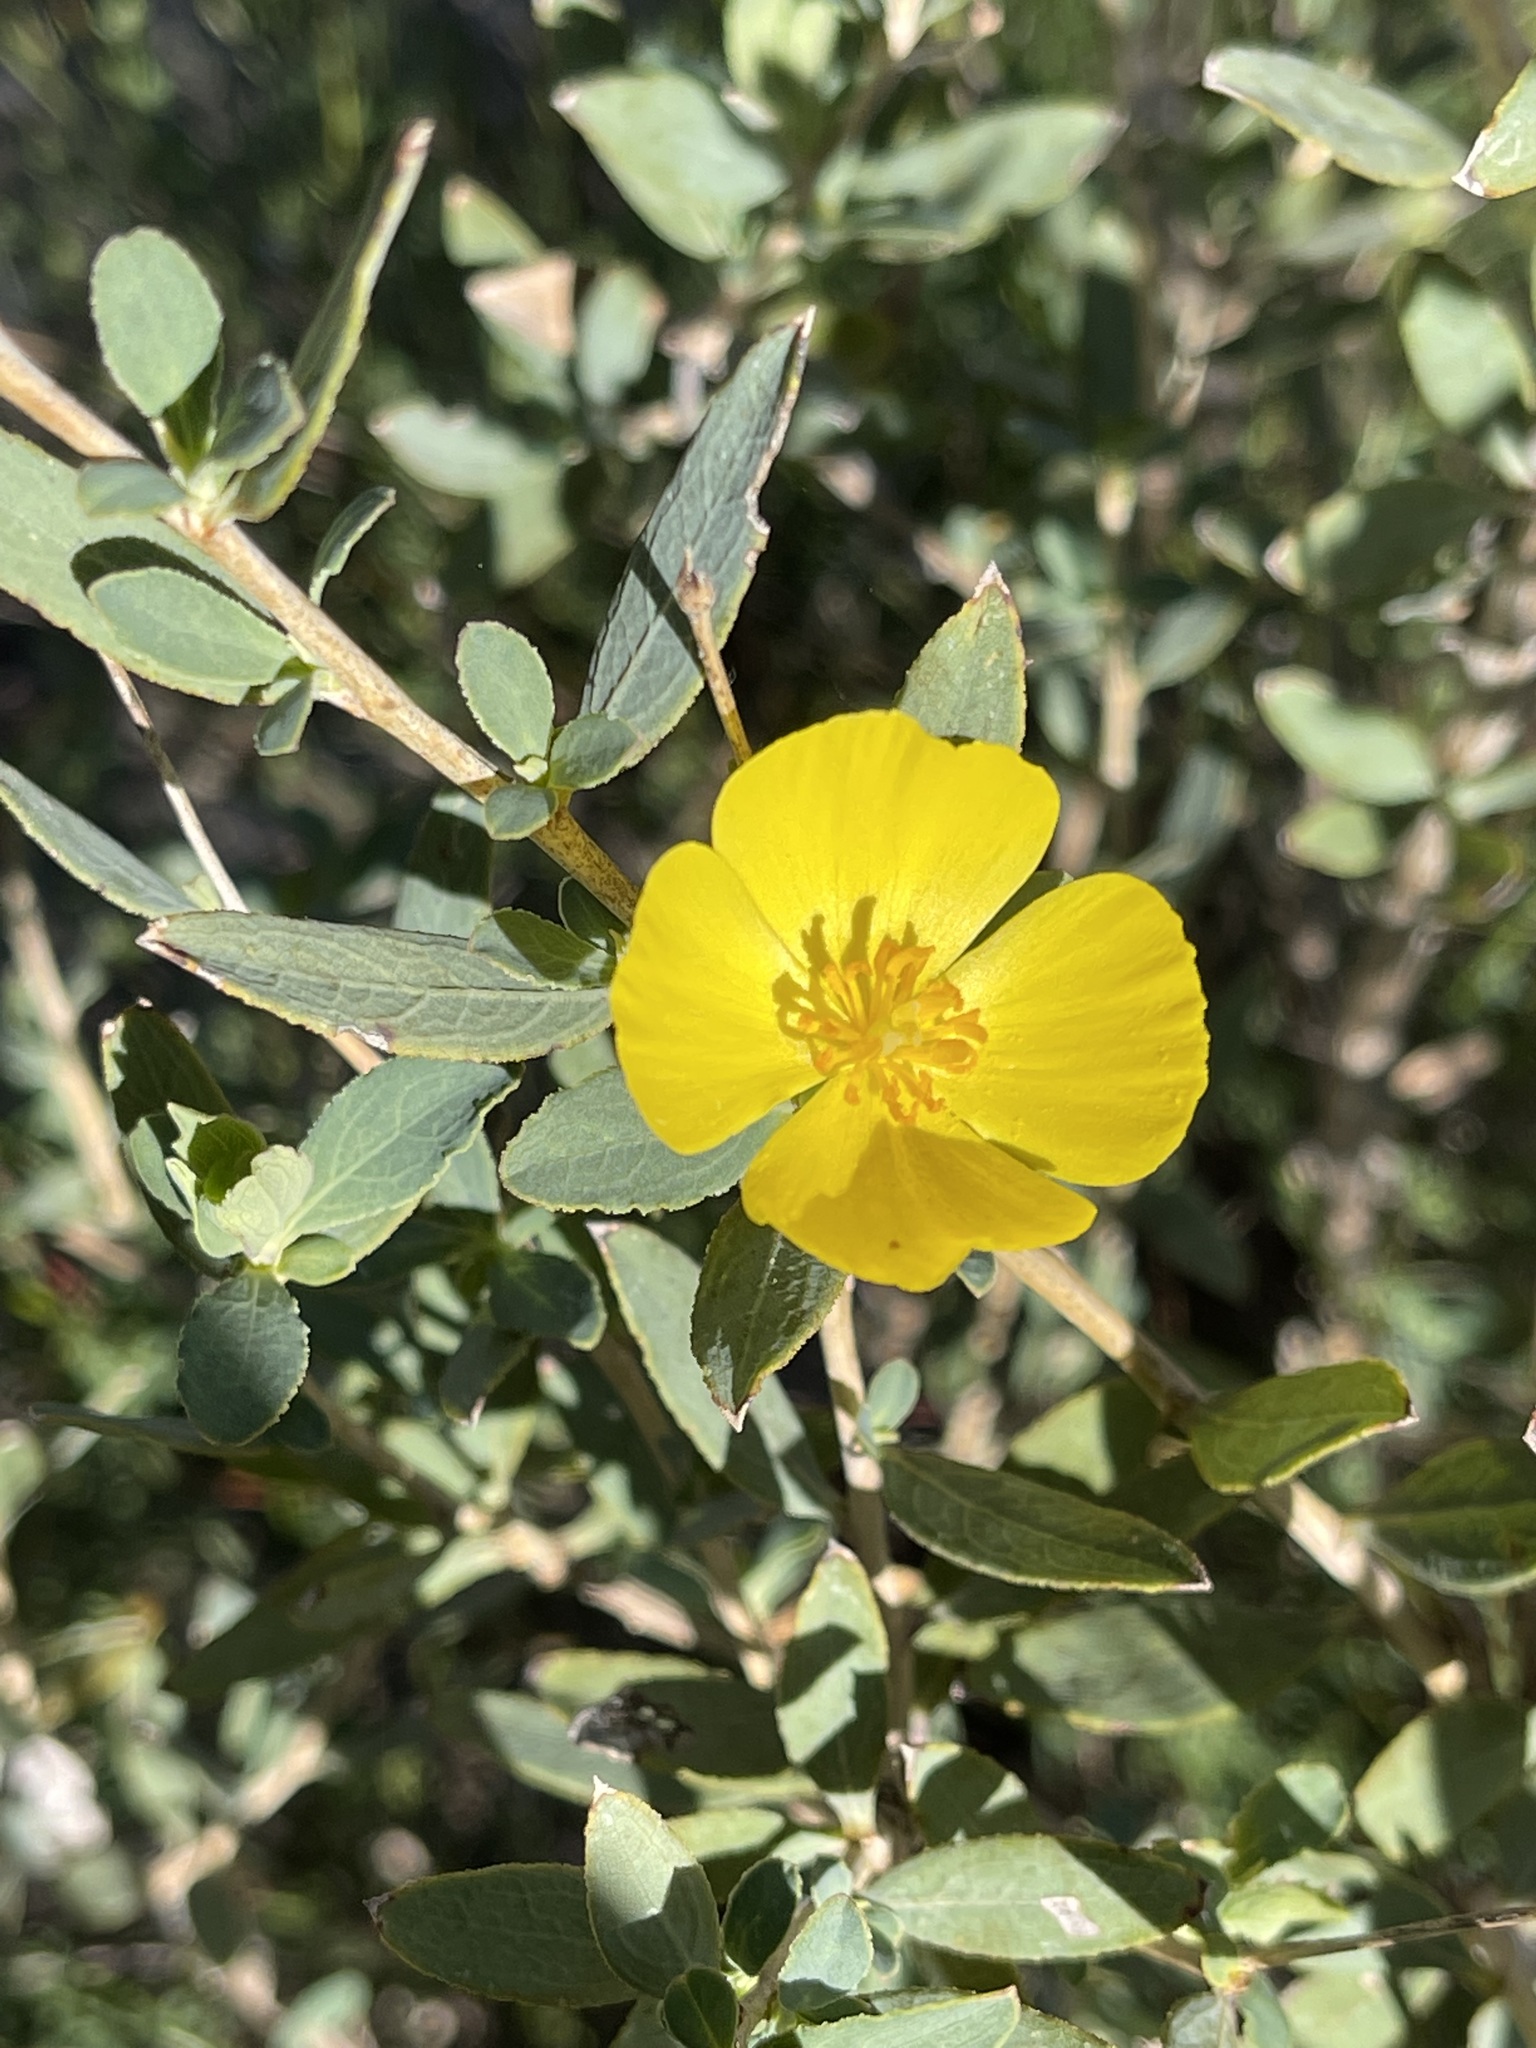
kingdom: Plantae
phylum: Tracheophyta
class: Magnoliopsida
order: Ranunculales
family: Papaveraceae
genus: Dendromecon
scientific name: Dendromecon rigida
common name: Tree poppy
